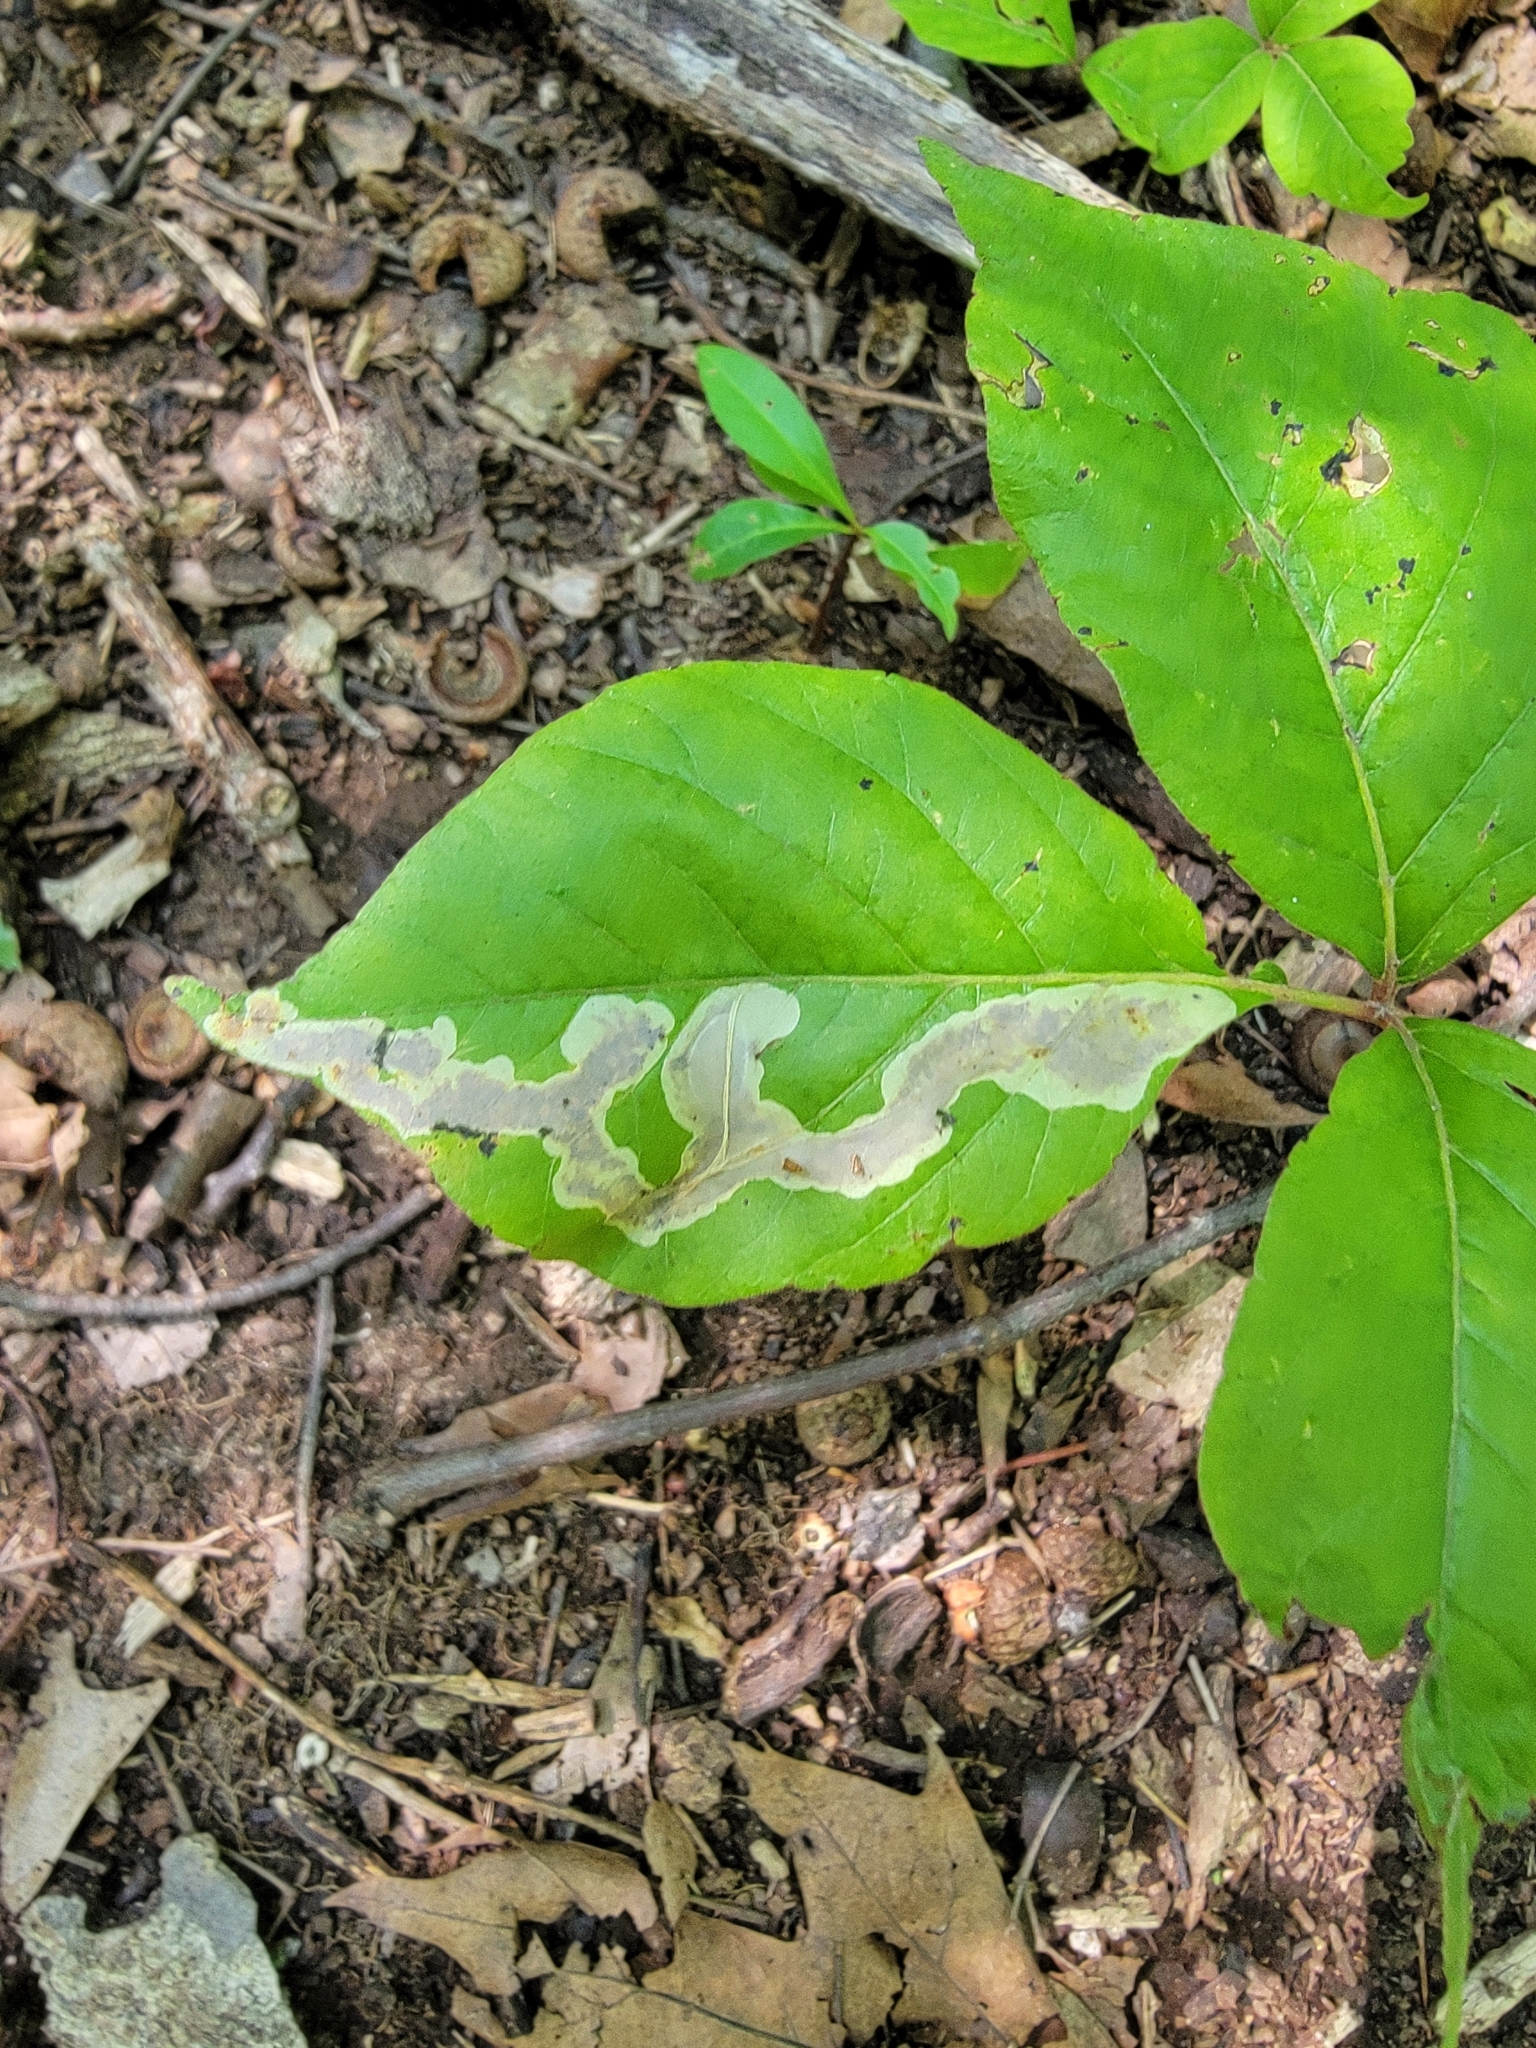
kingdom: Animalia
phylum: Arthropoda
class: Insecta
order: Lepidoptera
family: Gracillariidae
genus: Cameraria
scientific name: Cameraria guttifinitella
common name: Poison ivy leaf-miner moth
